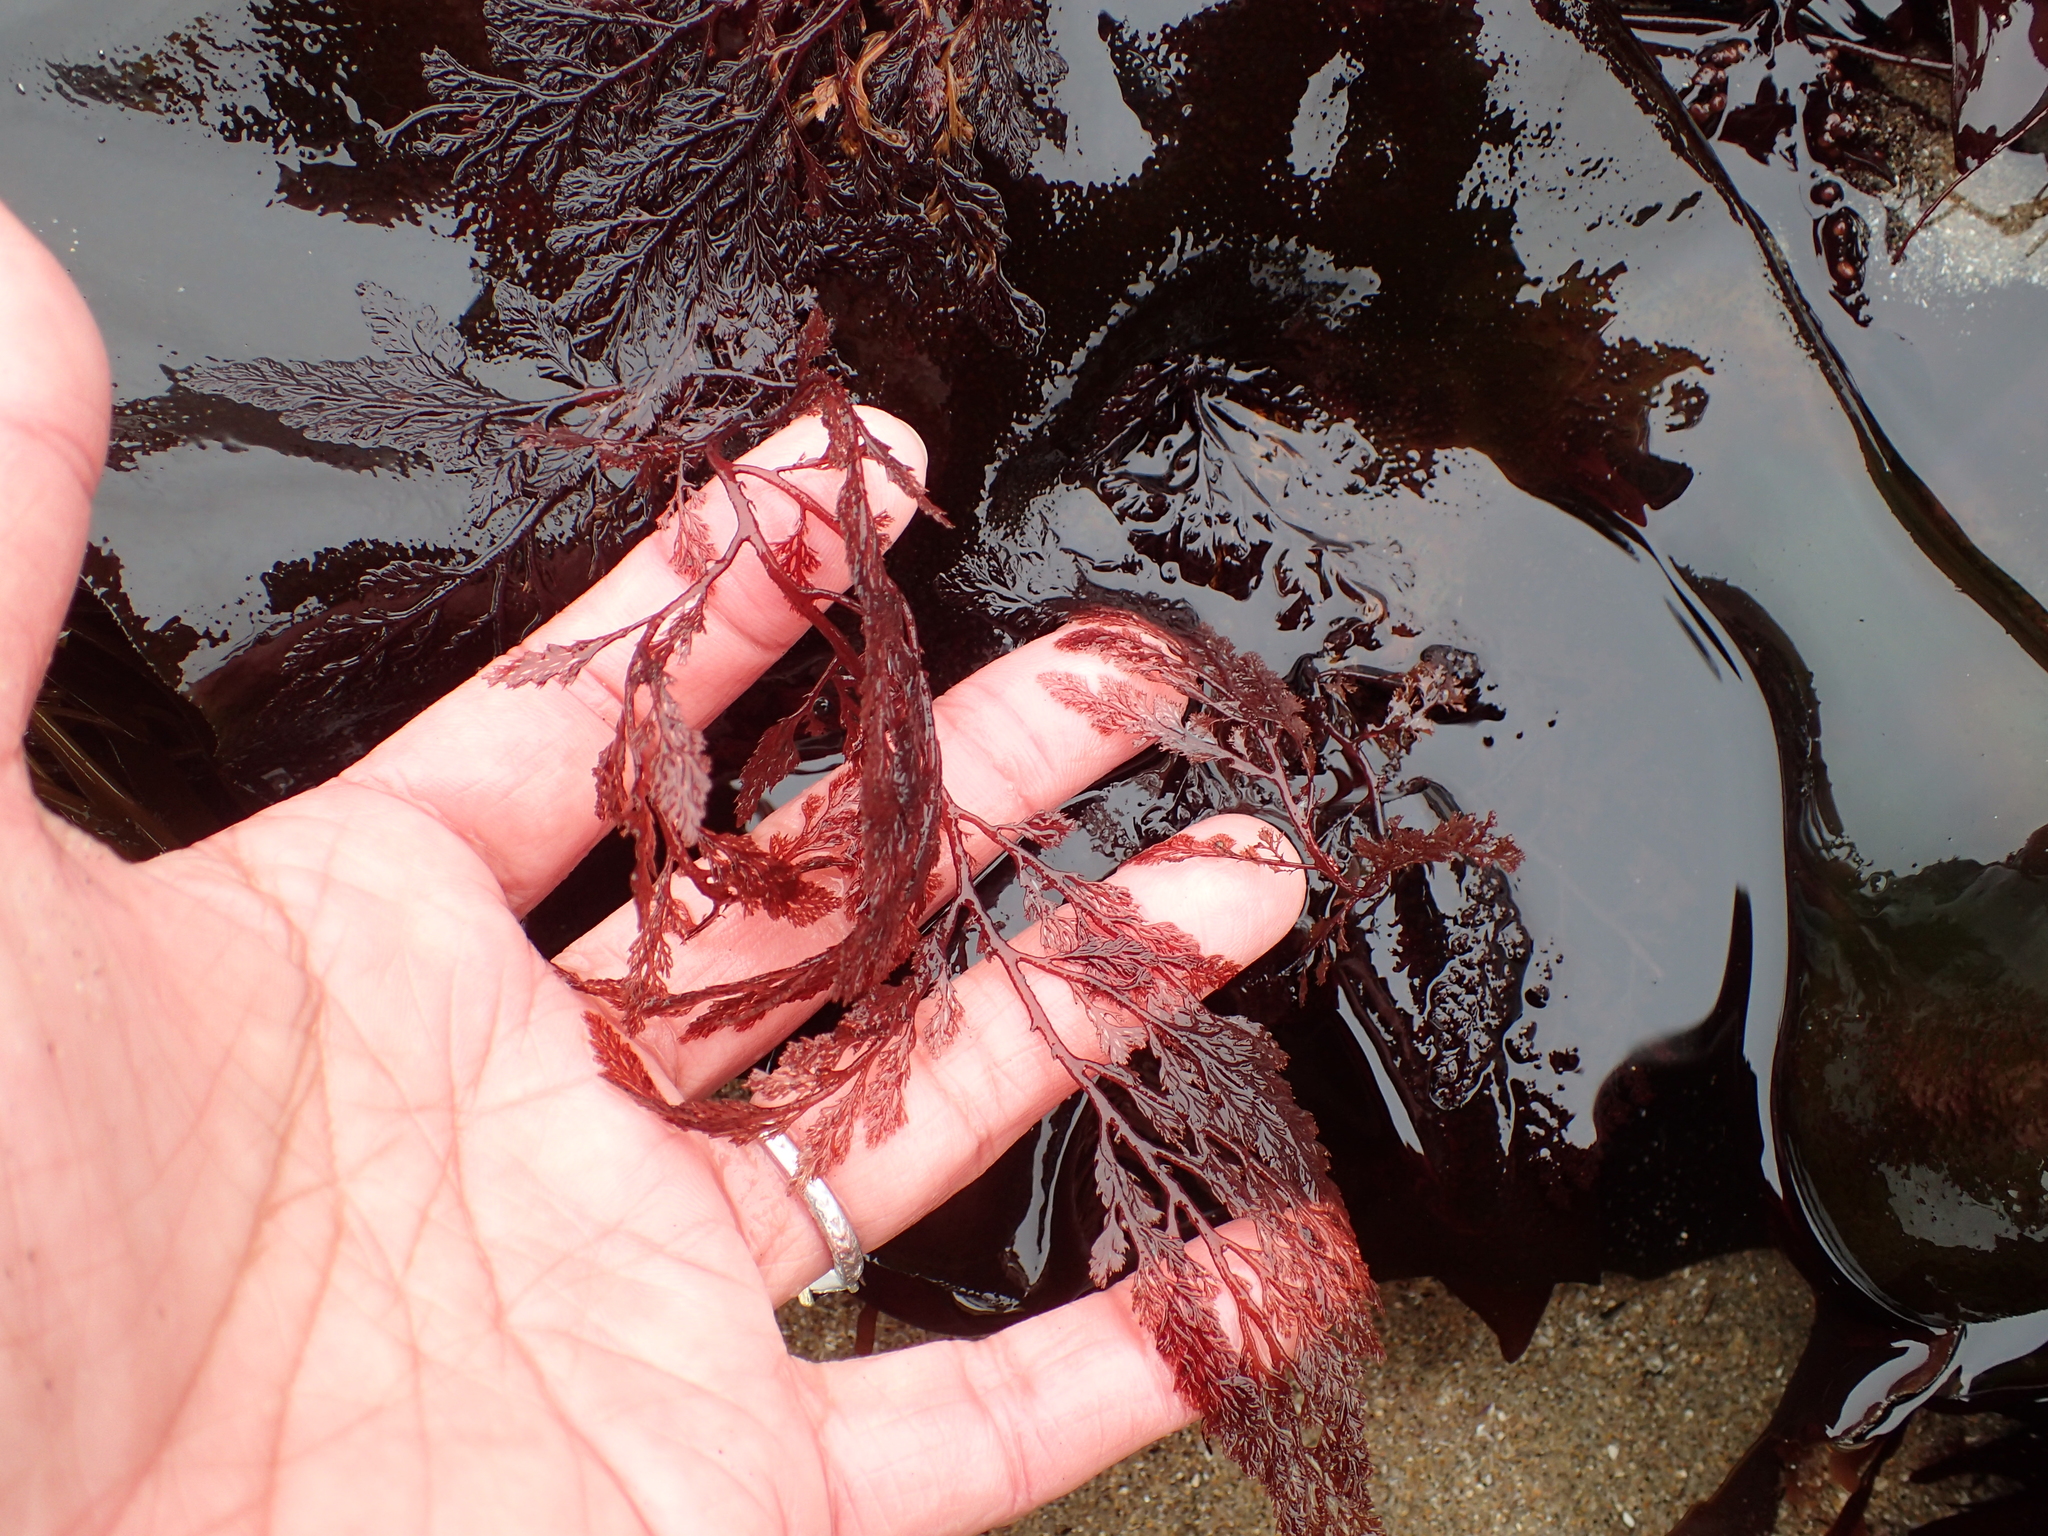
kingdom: Plantae
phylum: Rhodophyta
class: Florideophyceae
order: Ceramiales
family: Ceramiaceae
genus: Microcladia
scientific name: Microcladia coulteri
